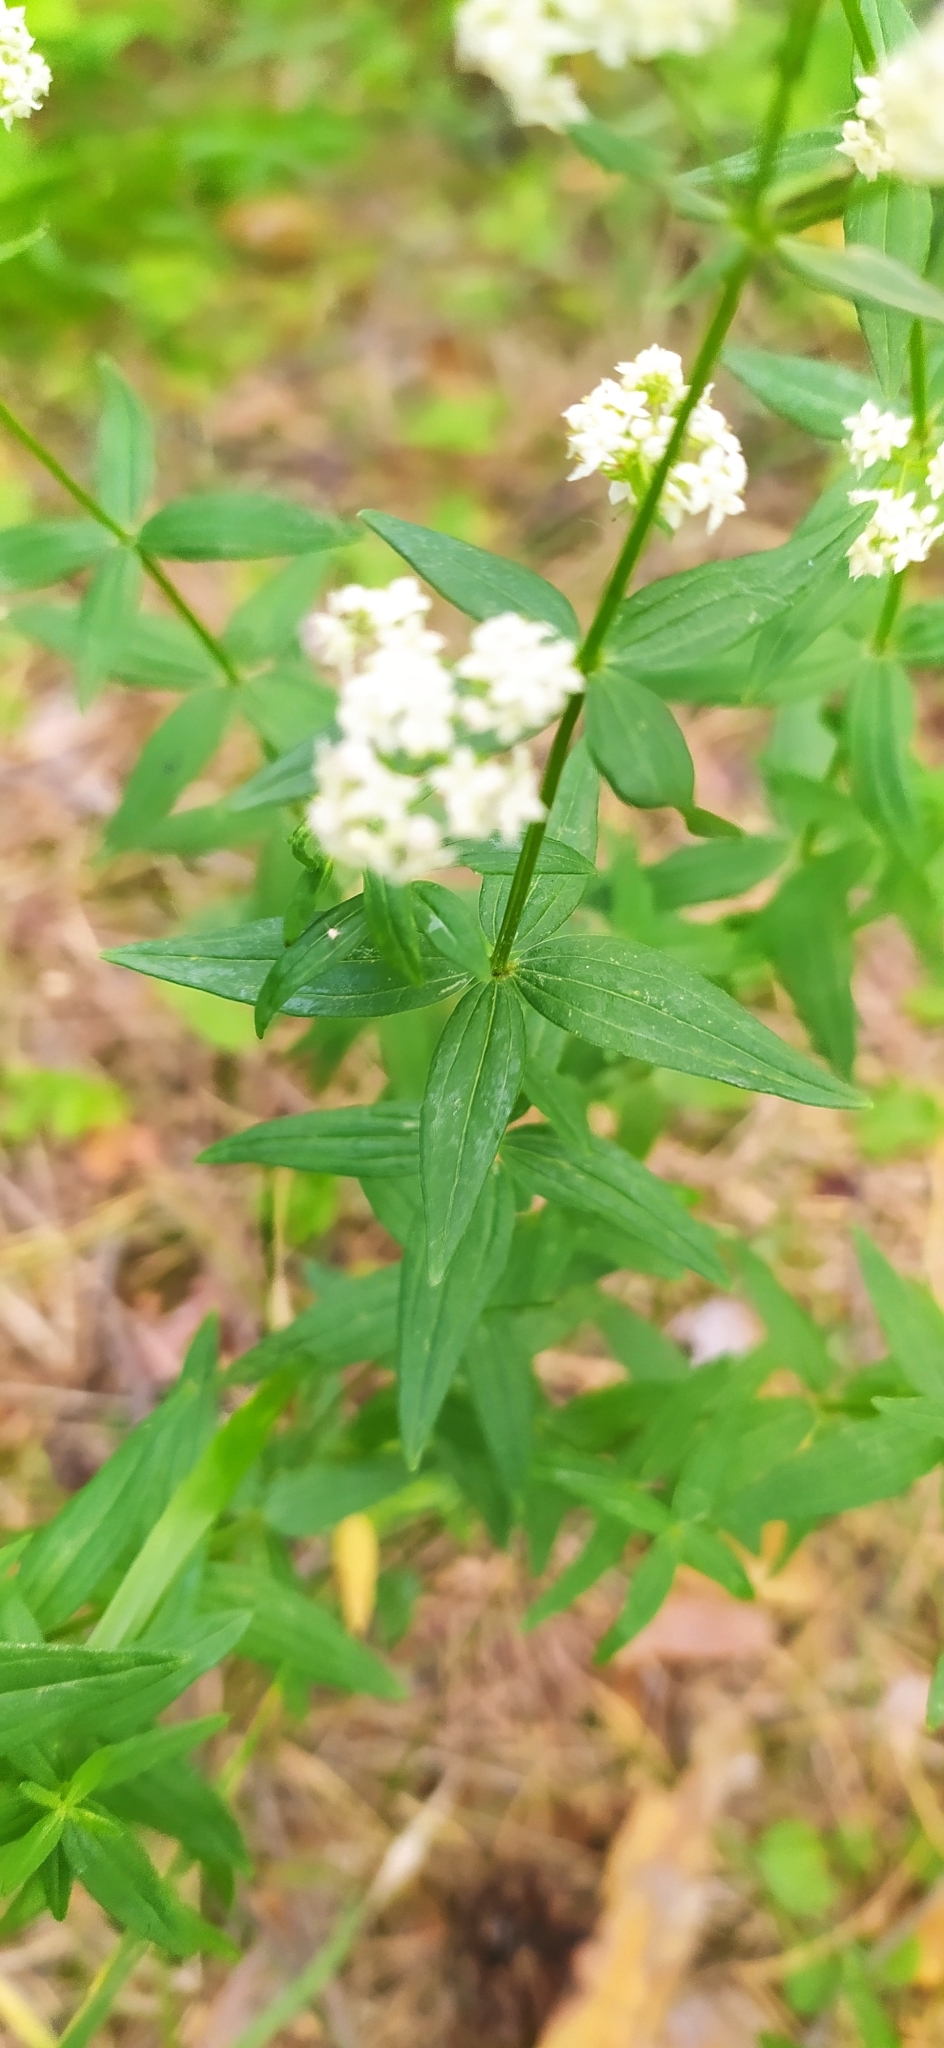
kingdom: Plantae
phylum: Tracheophyta
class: Magnoliopsida
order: Gentianales
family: Rubiaceae
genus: Galium
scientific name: Galium boreale
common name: Northern bedstraw
